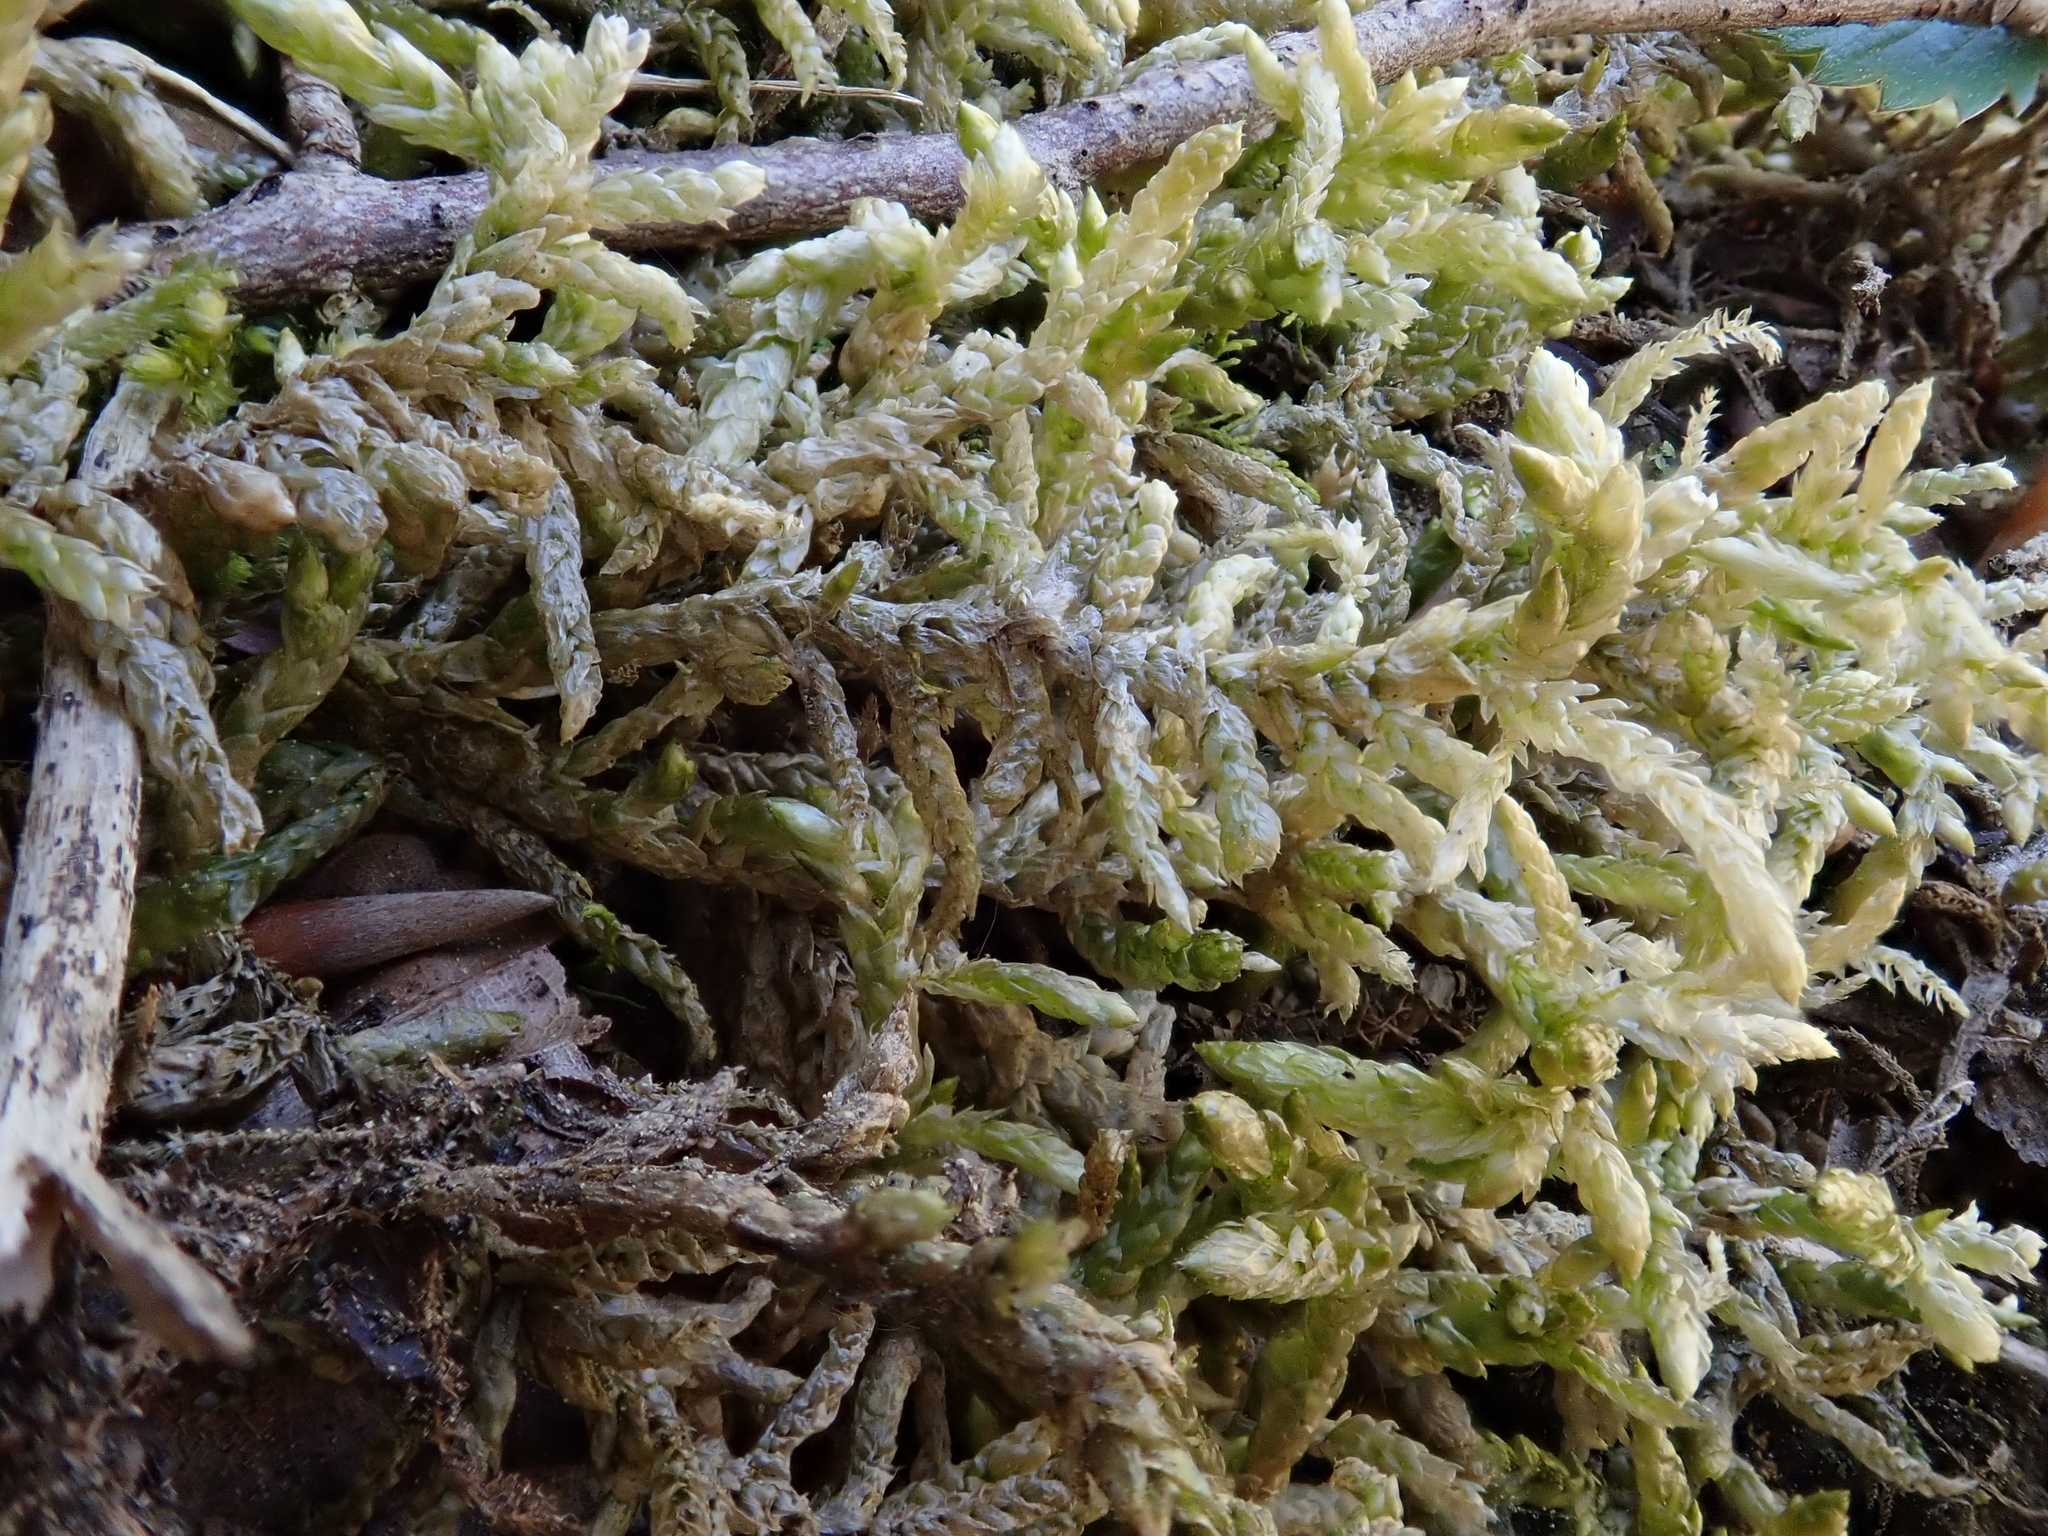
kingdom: Plantae
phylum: Bryophyta
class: Bryopsida
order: Hypnales
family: Brachytheciaceae
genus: Pseudoscleropodium
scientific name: Pseudoscleropodium purum
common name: Neat feather-moss
